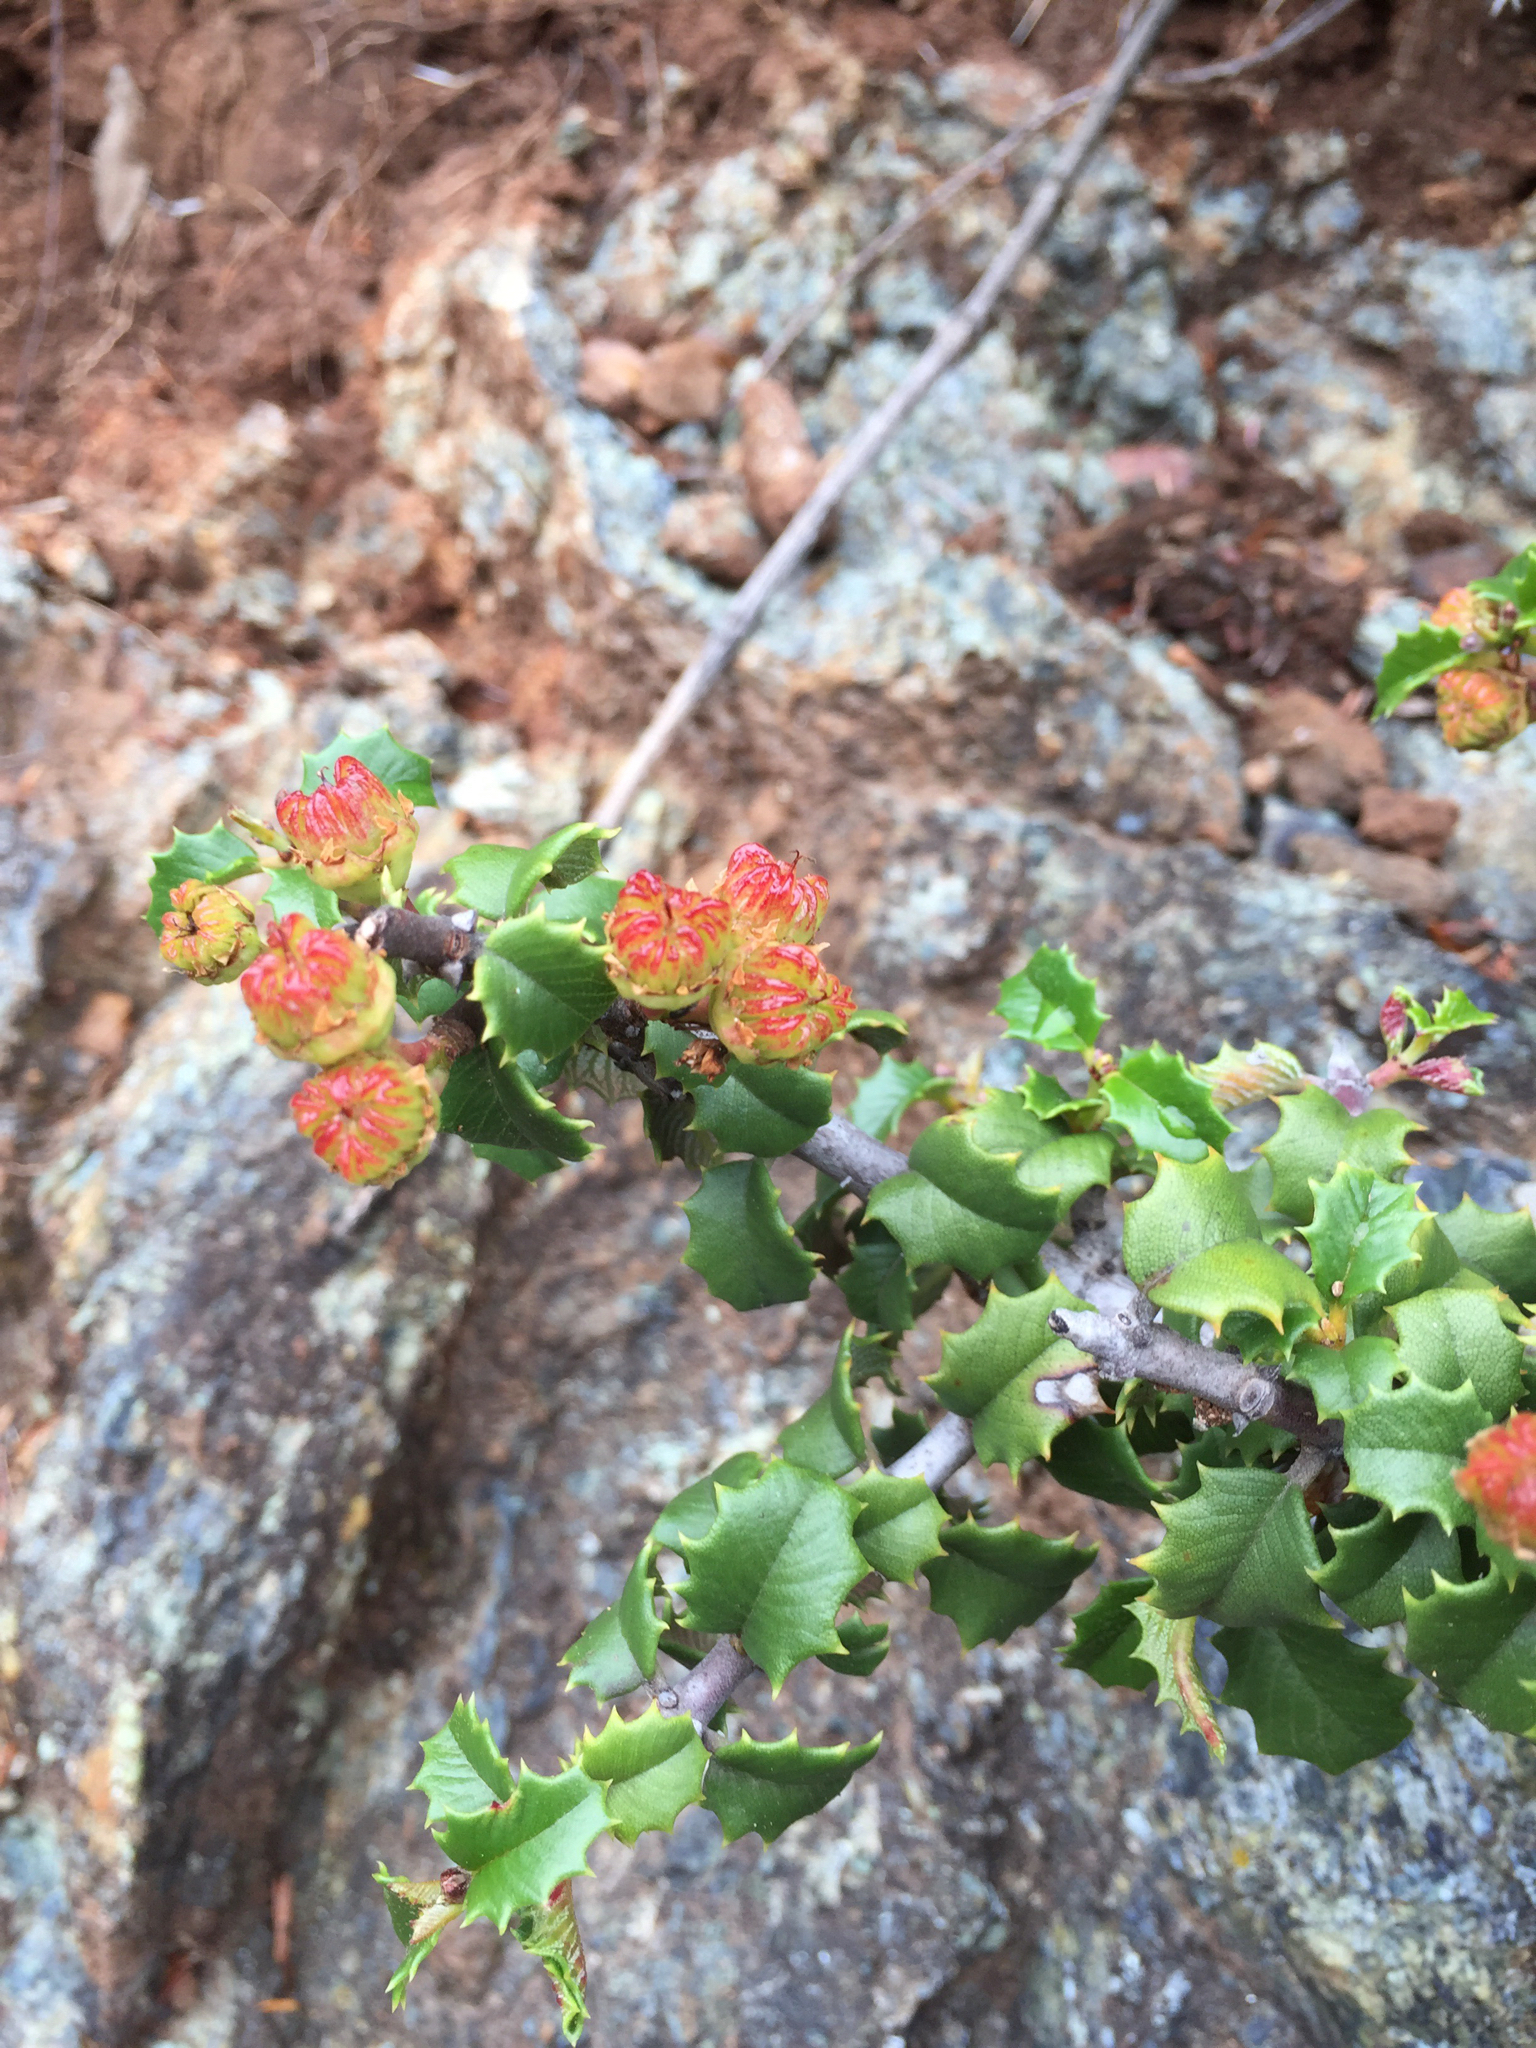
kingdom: Plantae
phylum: Tracheophyta
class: Magnoliopsida
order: Rosales
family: Rhamnaceae
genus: Ceanothus
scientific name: Ceanothus jepsonii
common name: Muskbrush
